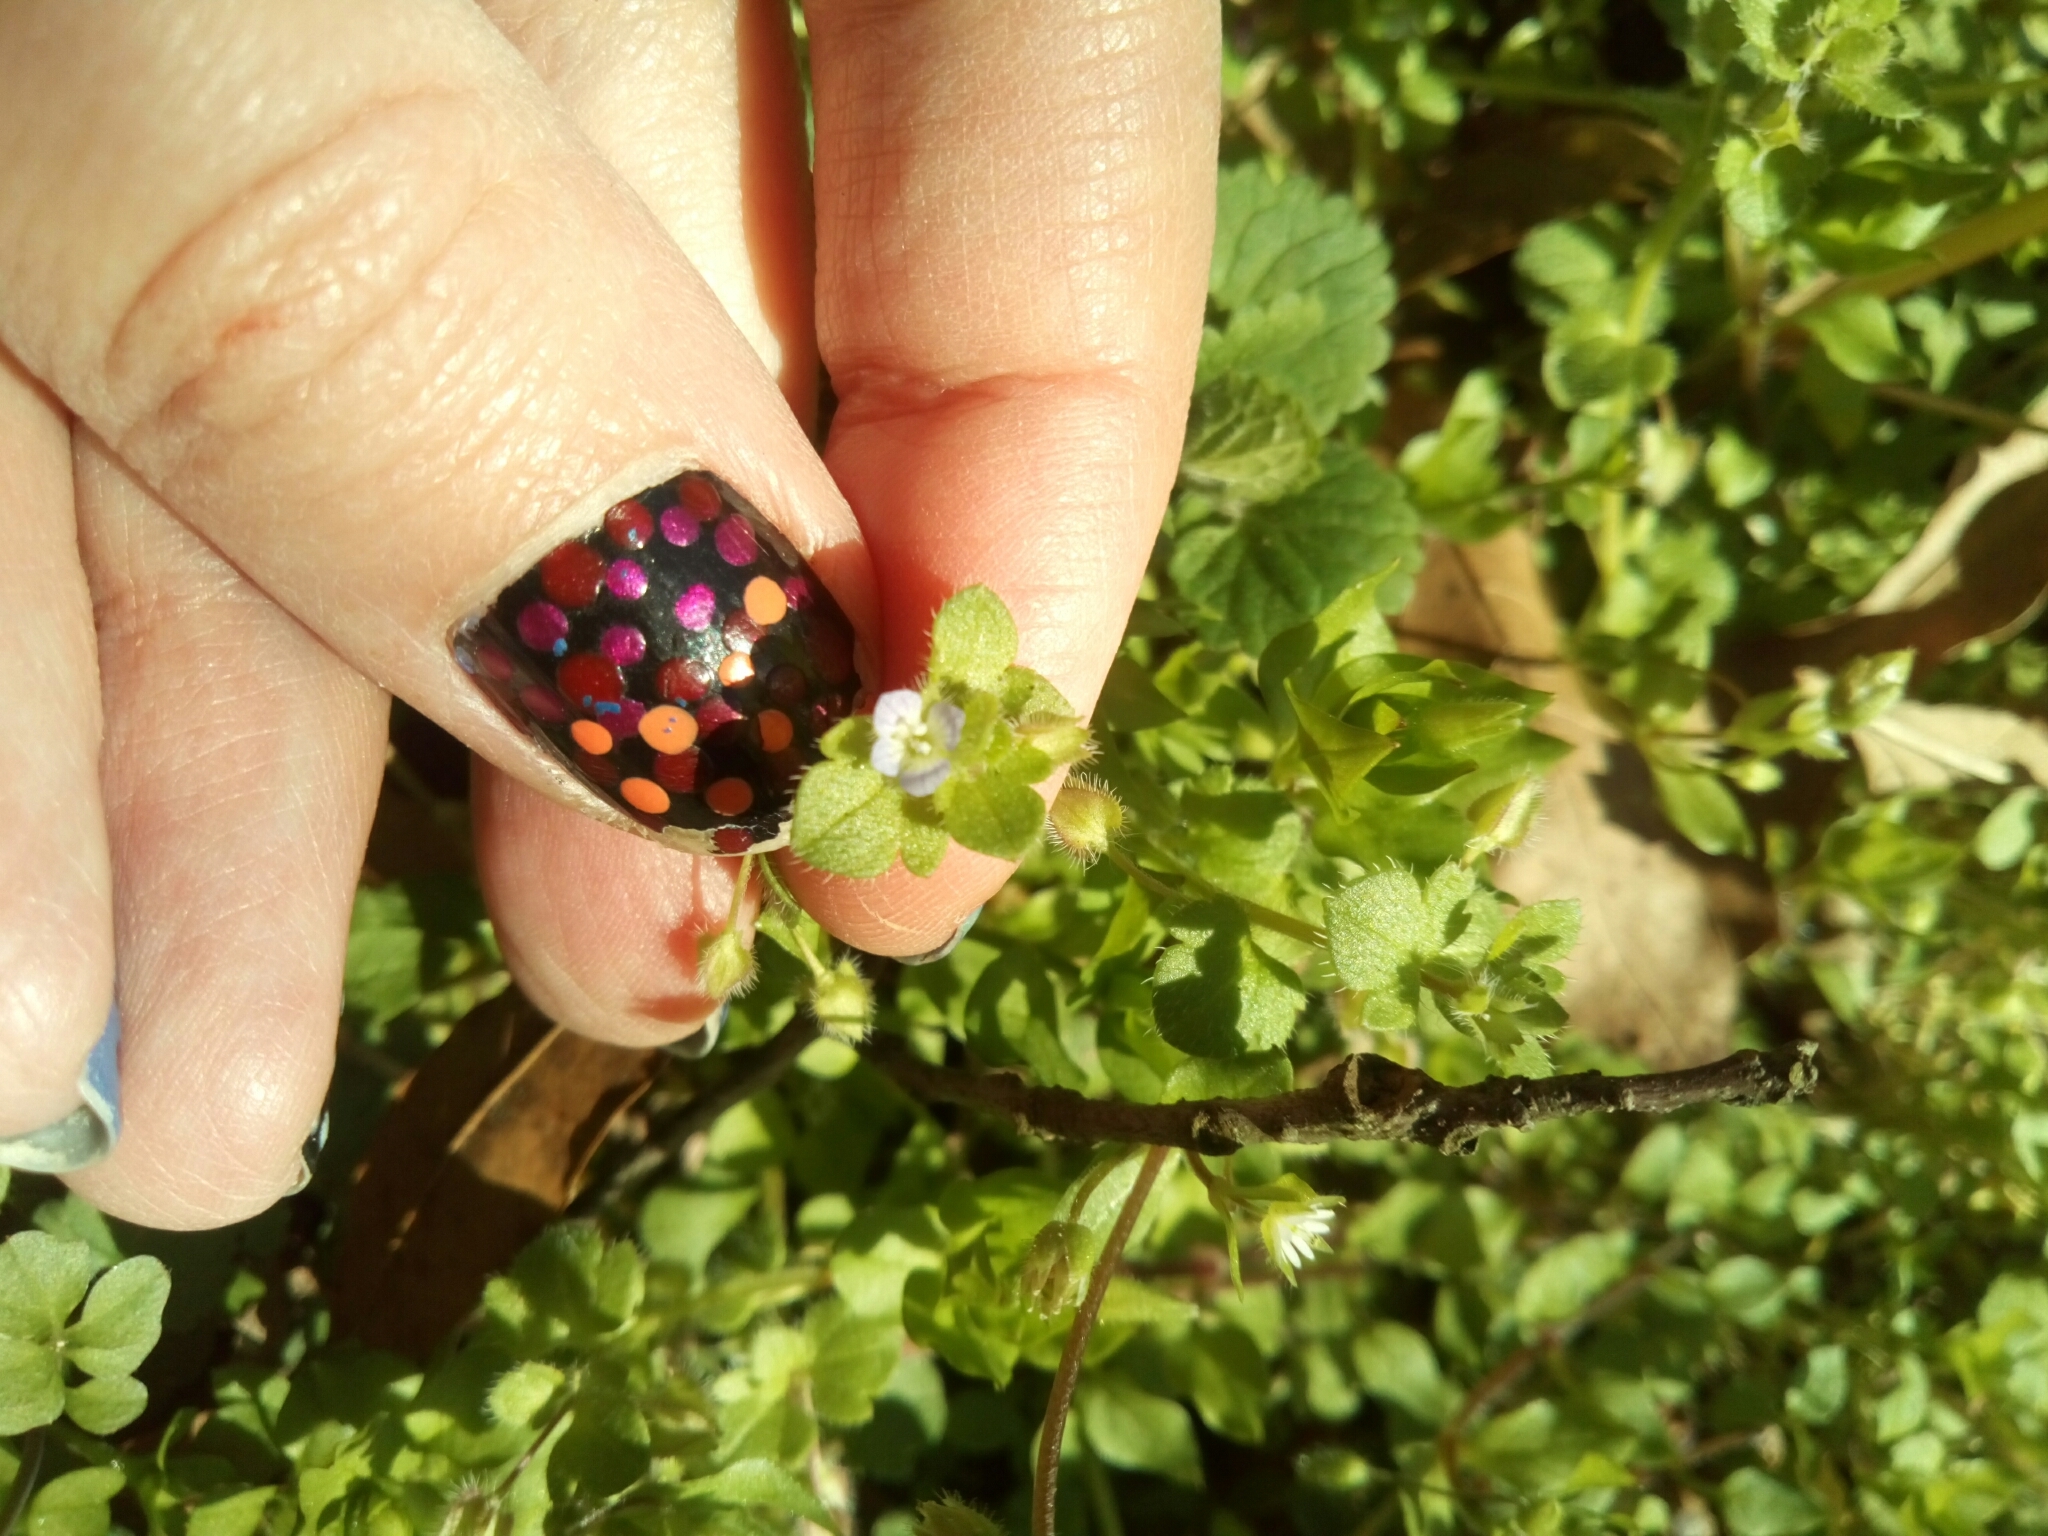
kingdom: Plantae
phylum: Tracheophyta
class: Magnoliopsida
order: Lamiales
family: Plantaginaceae
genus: Veronica
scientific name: Veronica hederifolia
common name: Ivy-leaved speedwell
